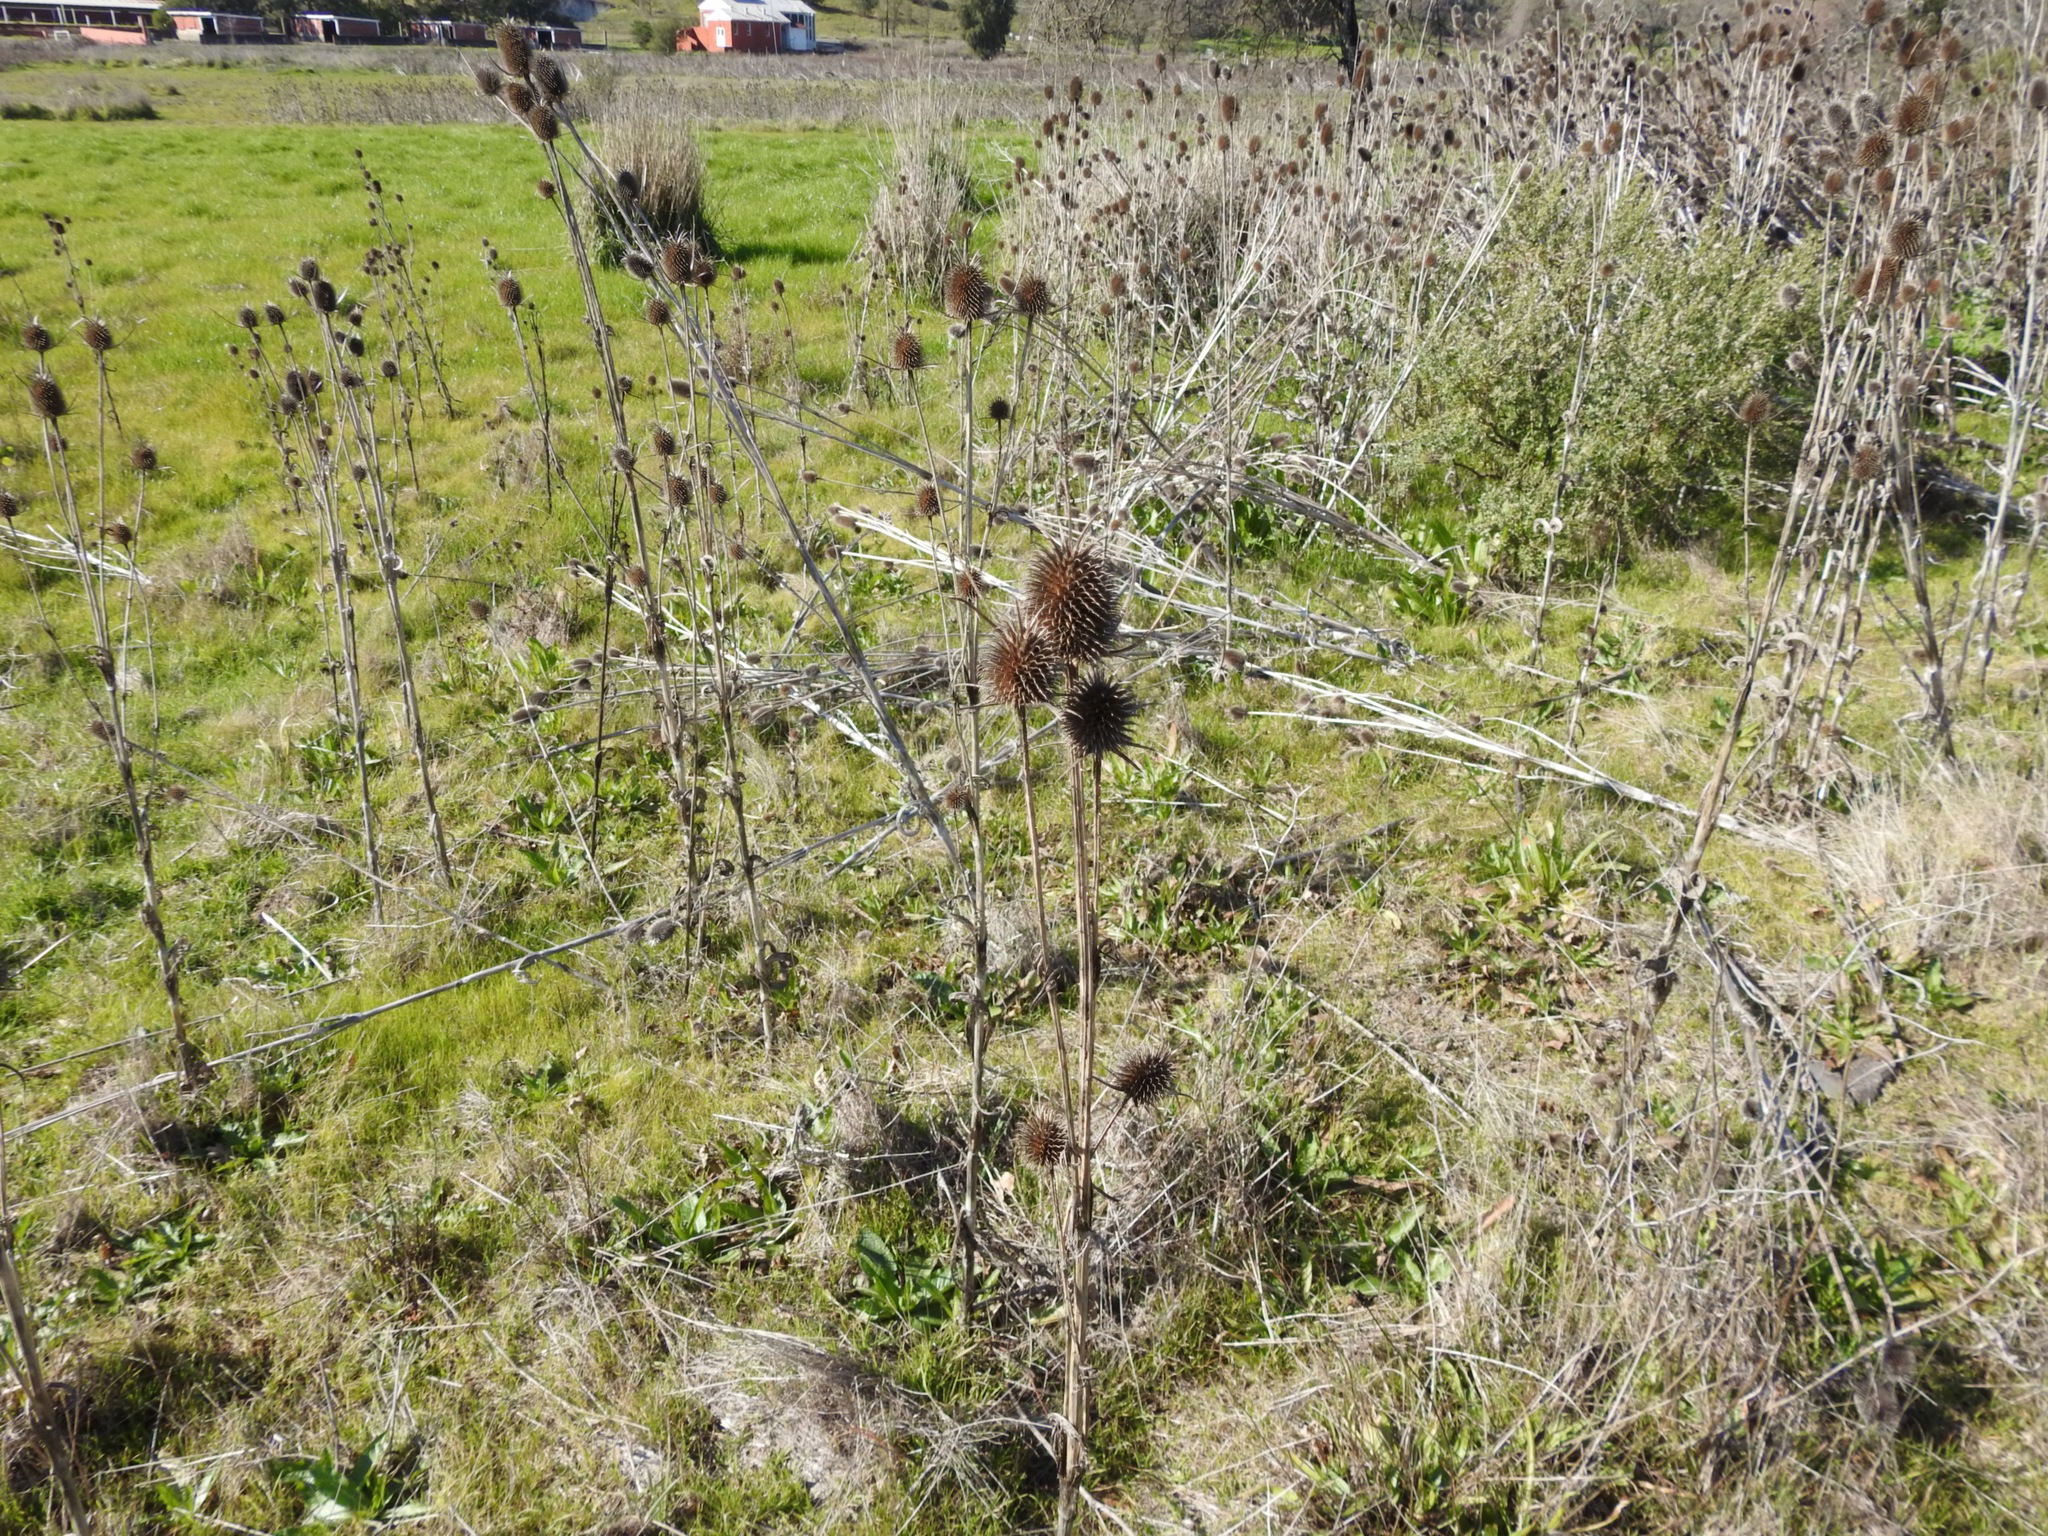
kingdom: Plantae
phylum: Tracheophyta
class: Magnoliopsida
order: Dipsacales
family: Caprifoliaceae
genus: Dipsacus
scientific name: Dipsacus sativus
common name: Fuller's teasel
